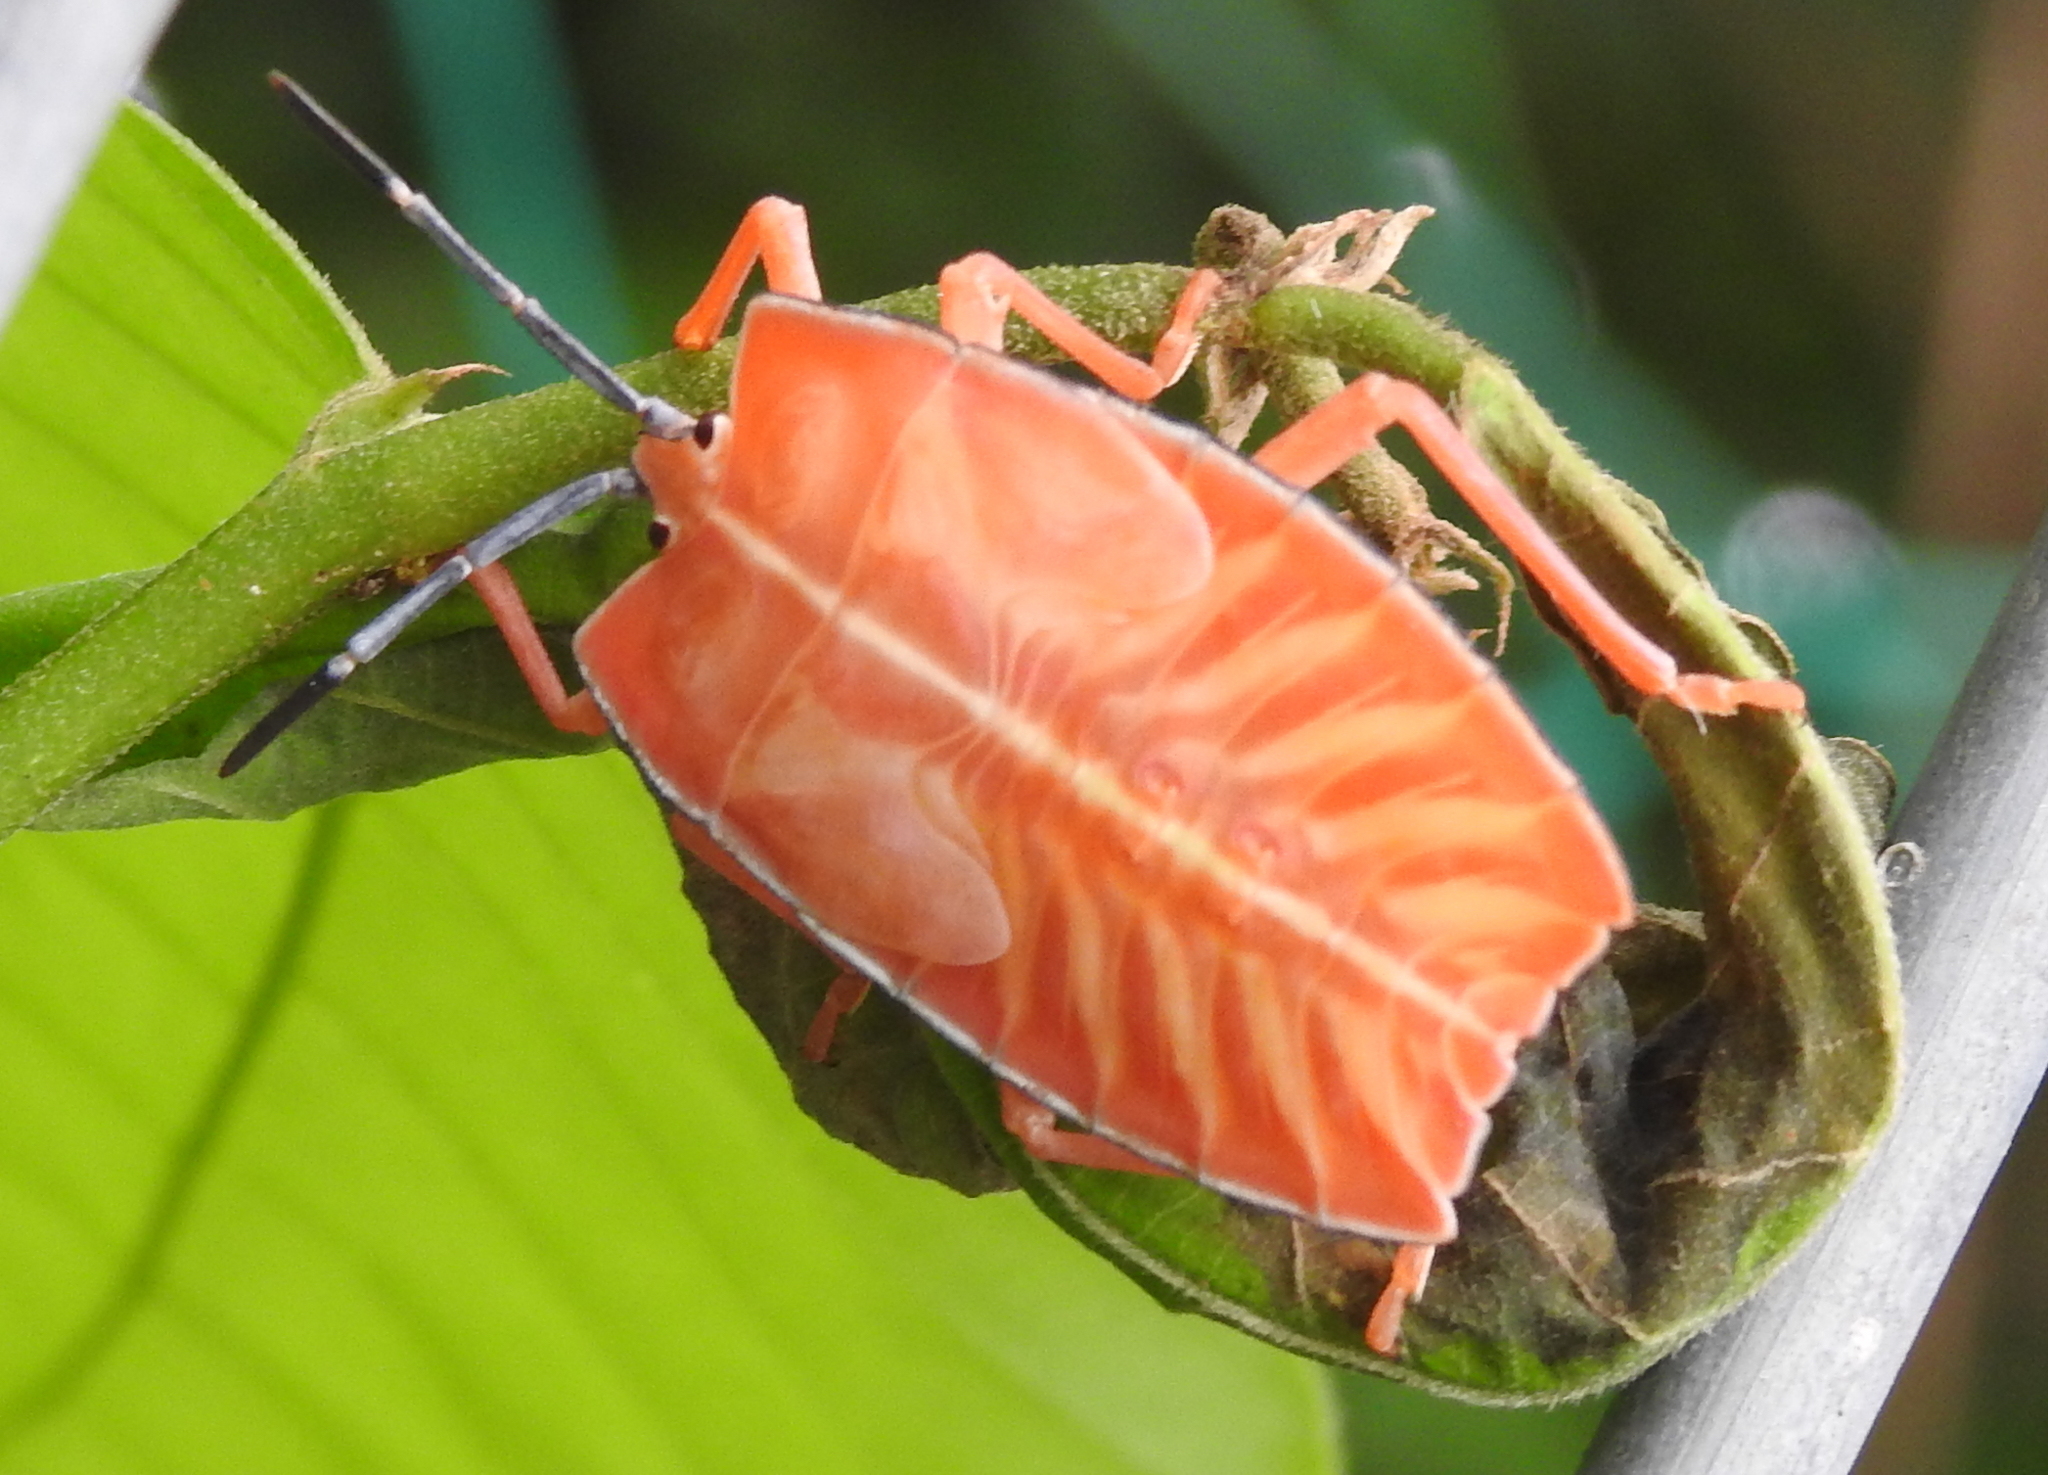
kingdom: Animalia
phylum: Arthropoda
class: Insecta
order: Hemiptera
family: Tessaratomidae
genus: Pycanum
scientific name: Pycanum alternatum
